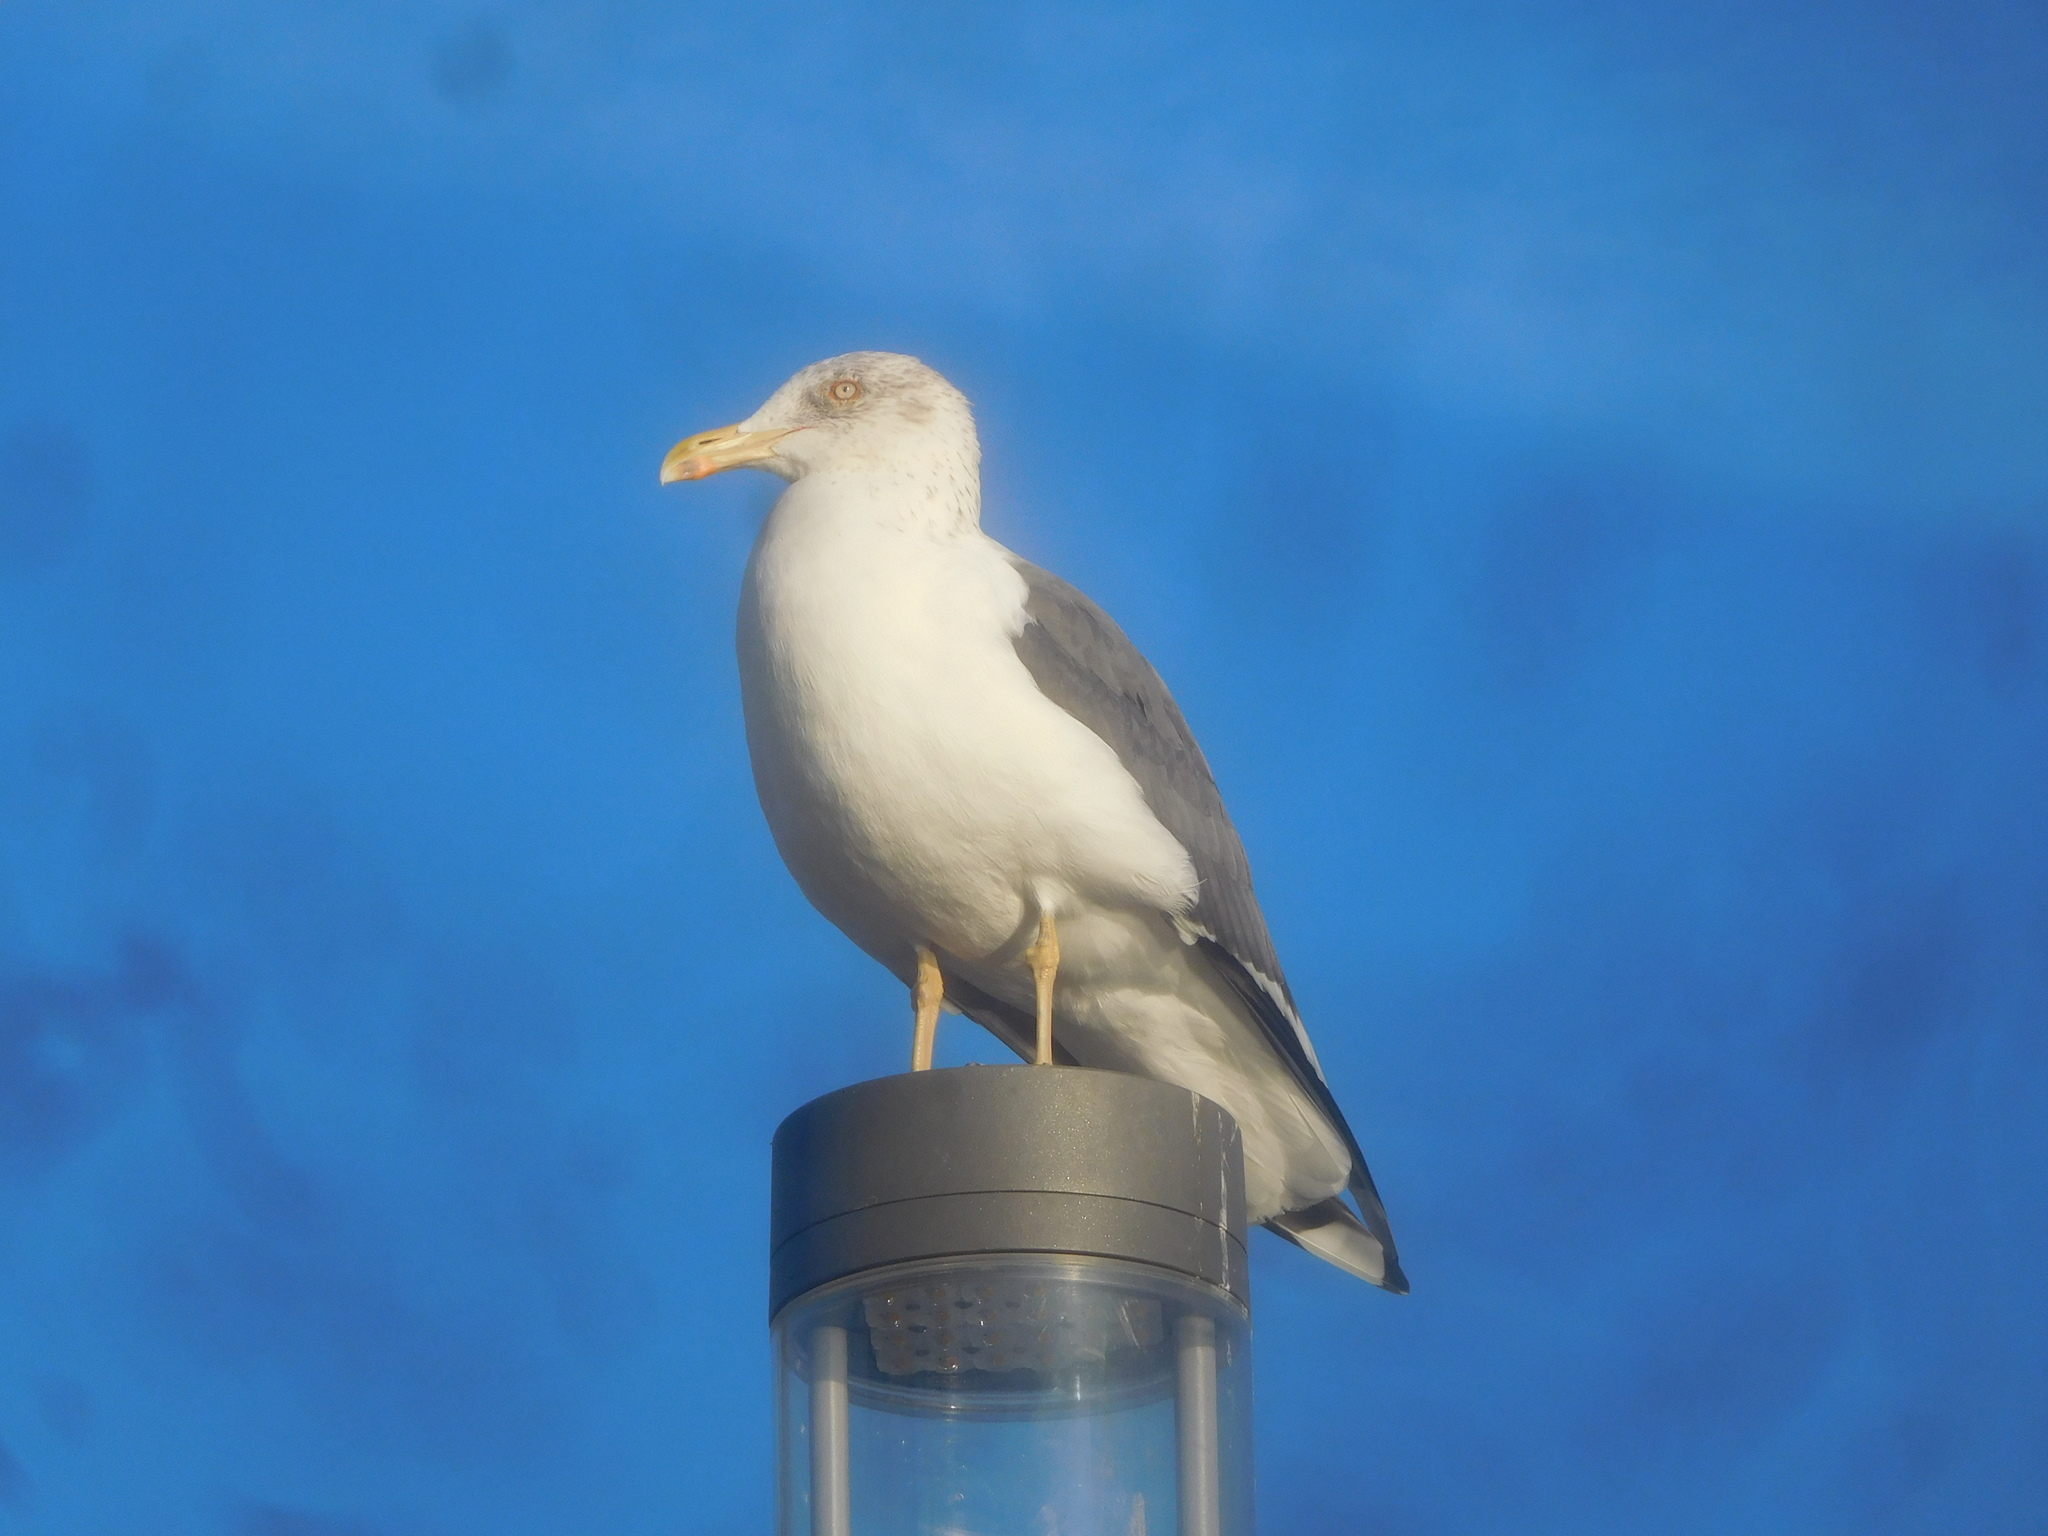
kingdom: Animalia
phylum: Chordata
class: Aves
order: Charadriiformes
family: Laridae
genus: Larus
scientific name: Larus michahellis
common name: Yellow-legged gull
